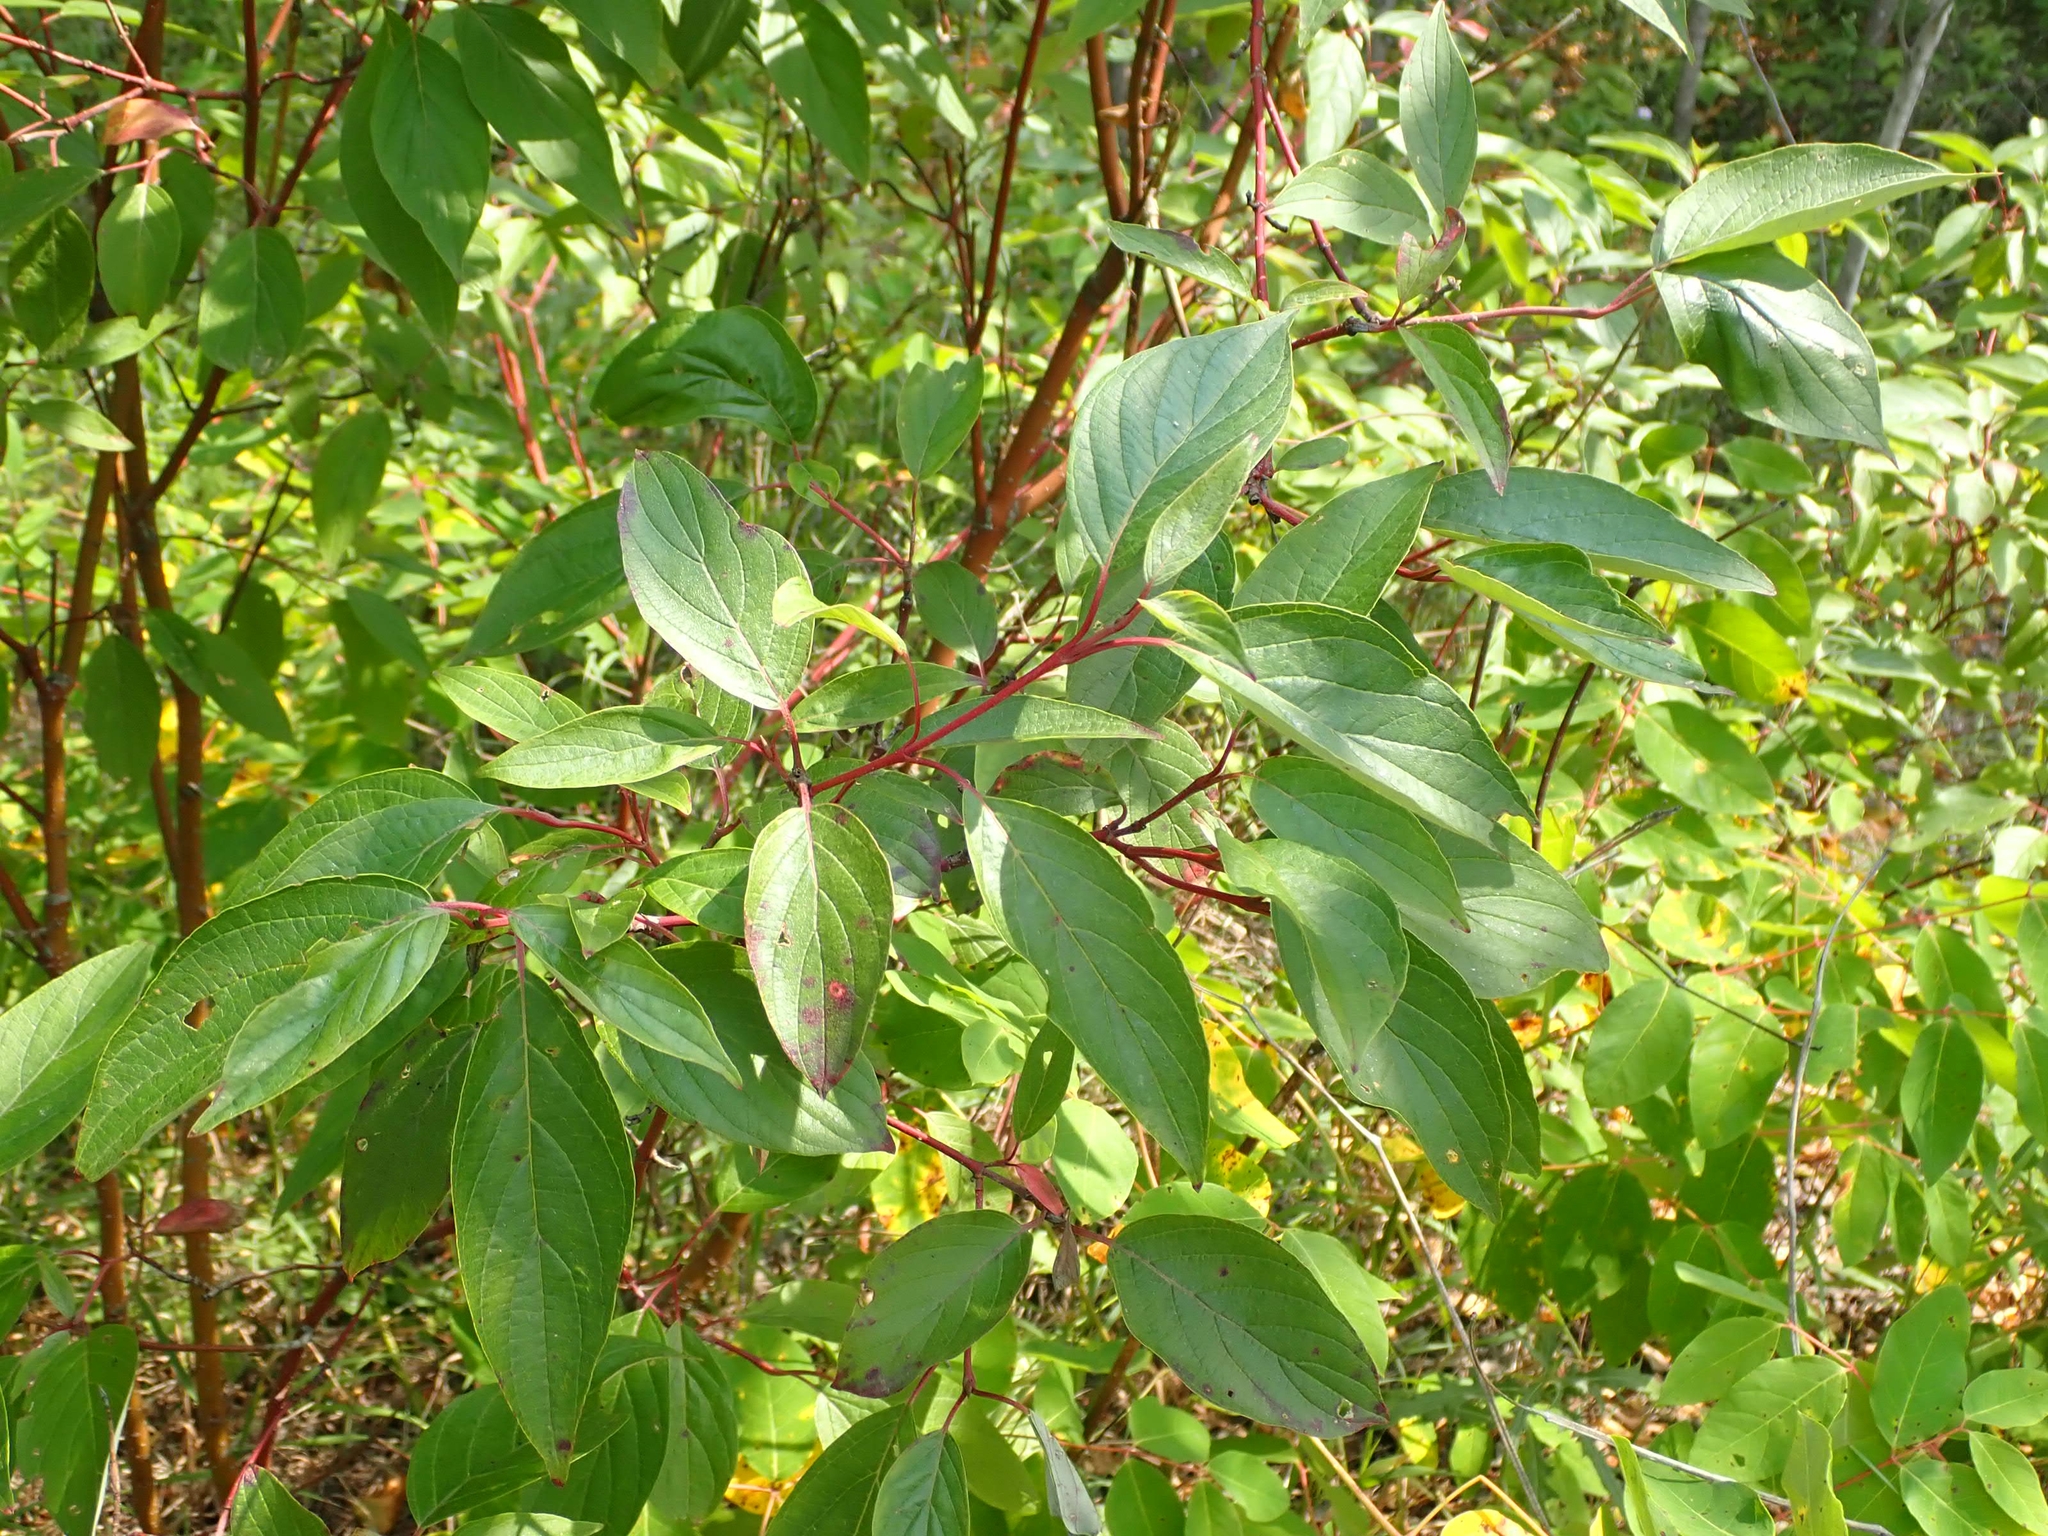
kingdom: Plantae
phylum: Tracheophyta
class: Magnoliopsida
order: Cornales
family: Cornaceae
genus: Cornus
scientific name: Cornus sericea
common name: Red-osier dogwood
